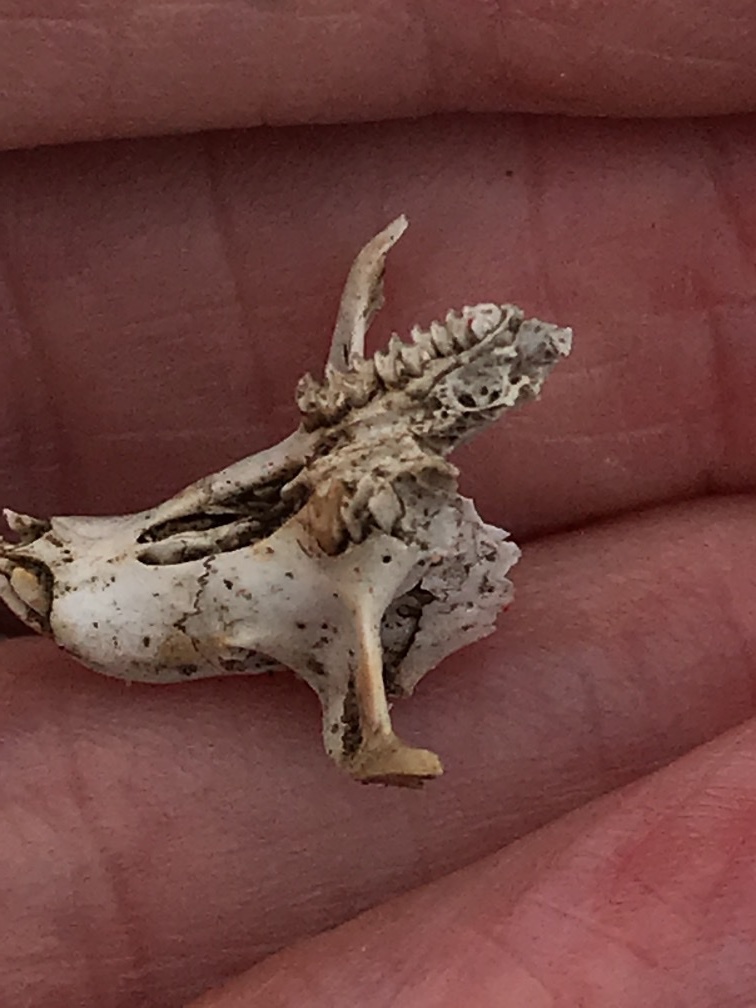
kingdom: Animalia
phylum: Chordata
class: Mammalia
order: Rodentia
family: Cricetidae
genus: Microtus
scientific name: Microtus californicus
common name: California vole
